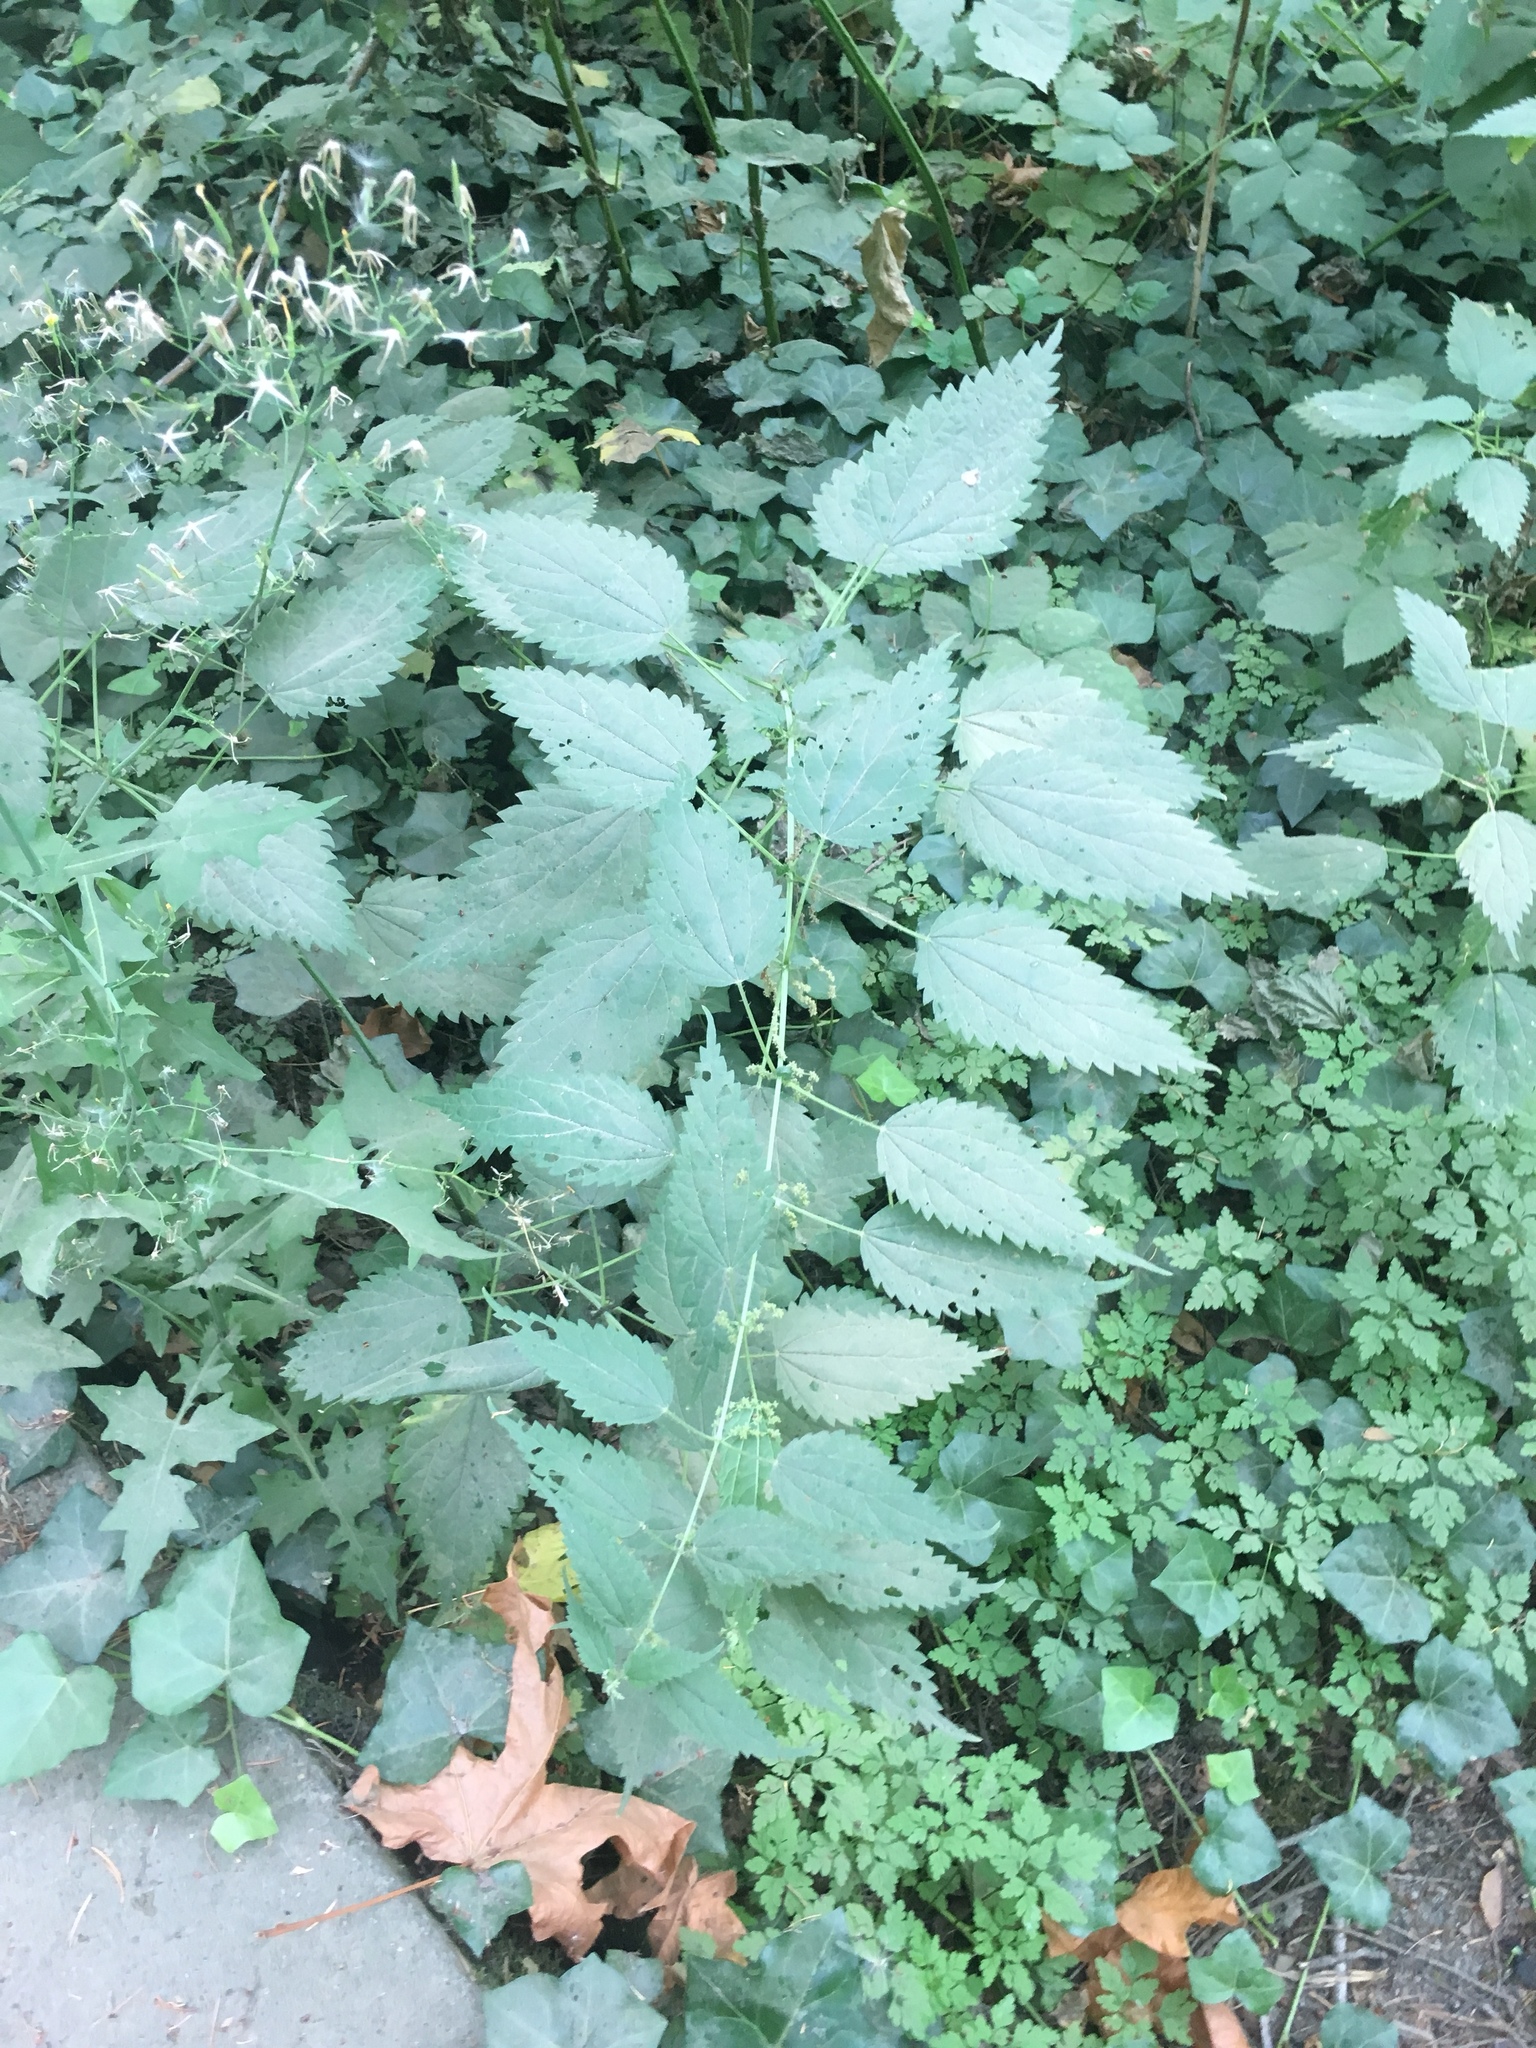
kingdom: Plantae
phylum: Tracheophyta
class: Magnoliopsida
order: Rosales
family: Urticaceae
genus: Urtica
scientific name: Urtica dioica
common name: Common nettle
